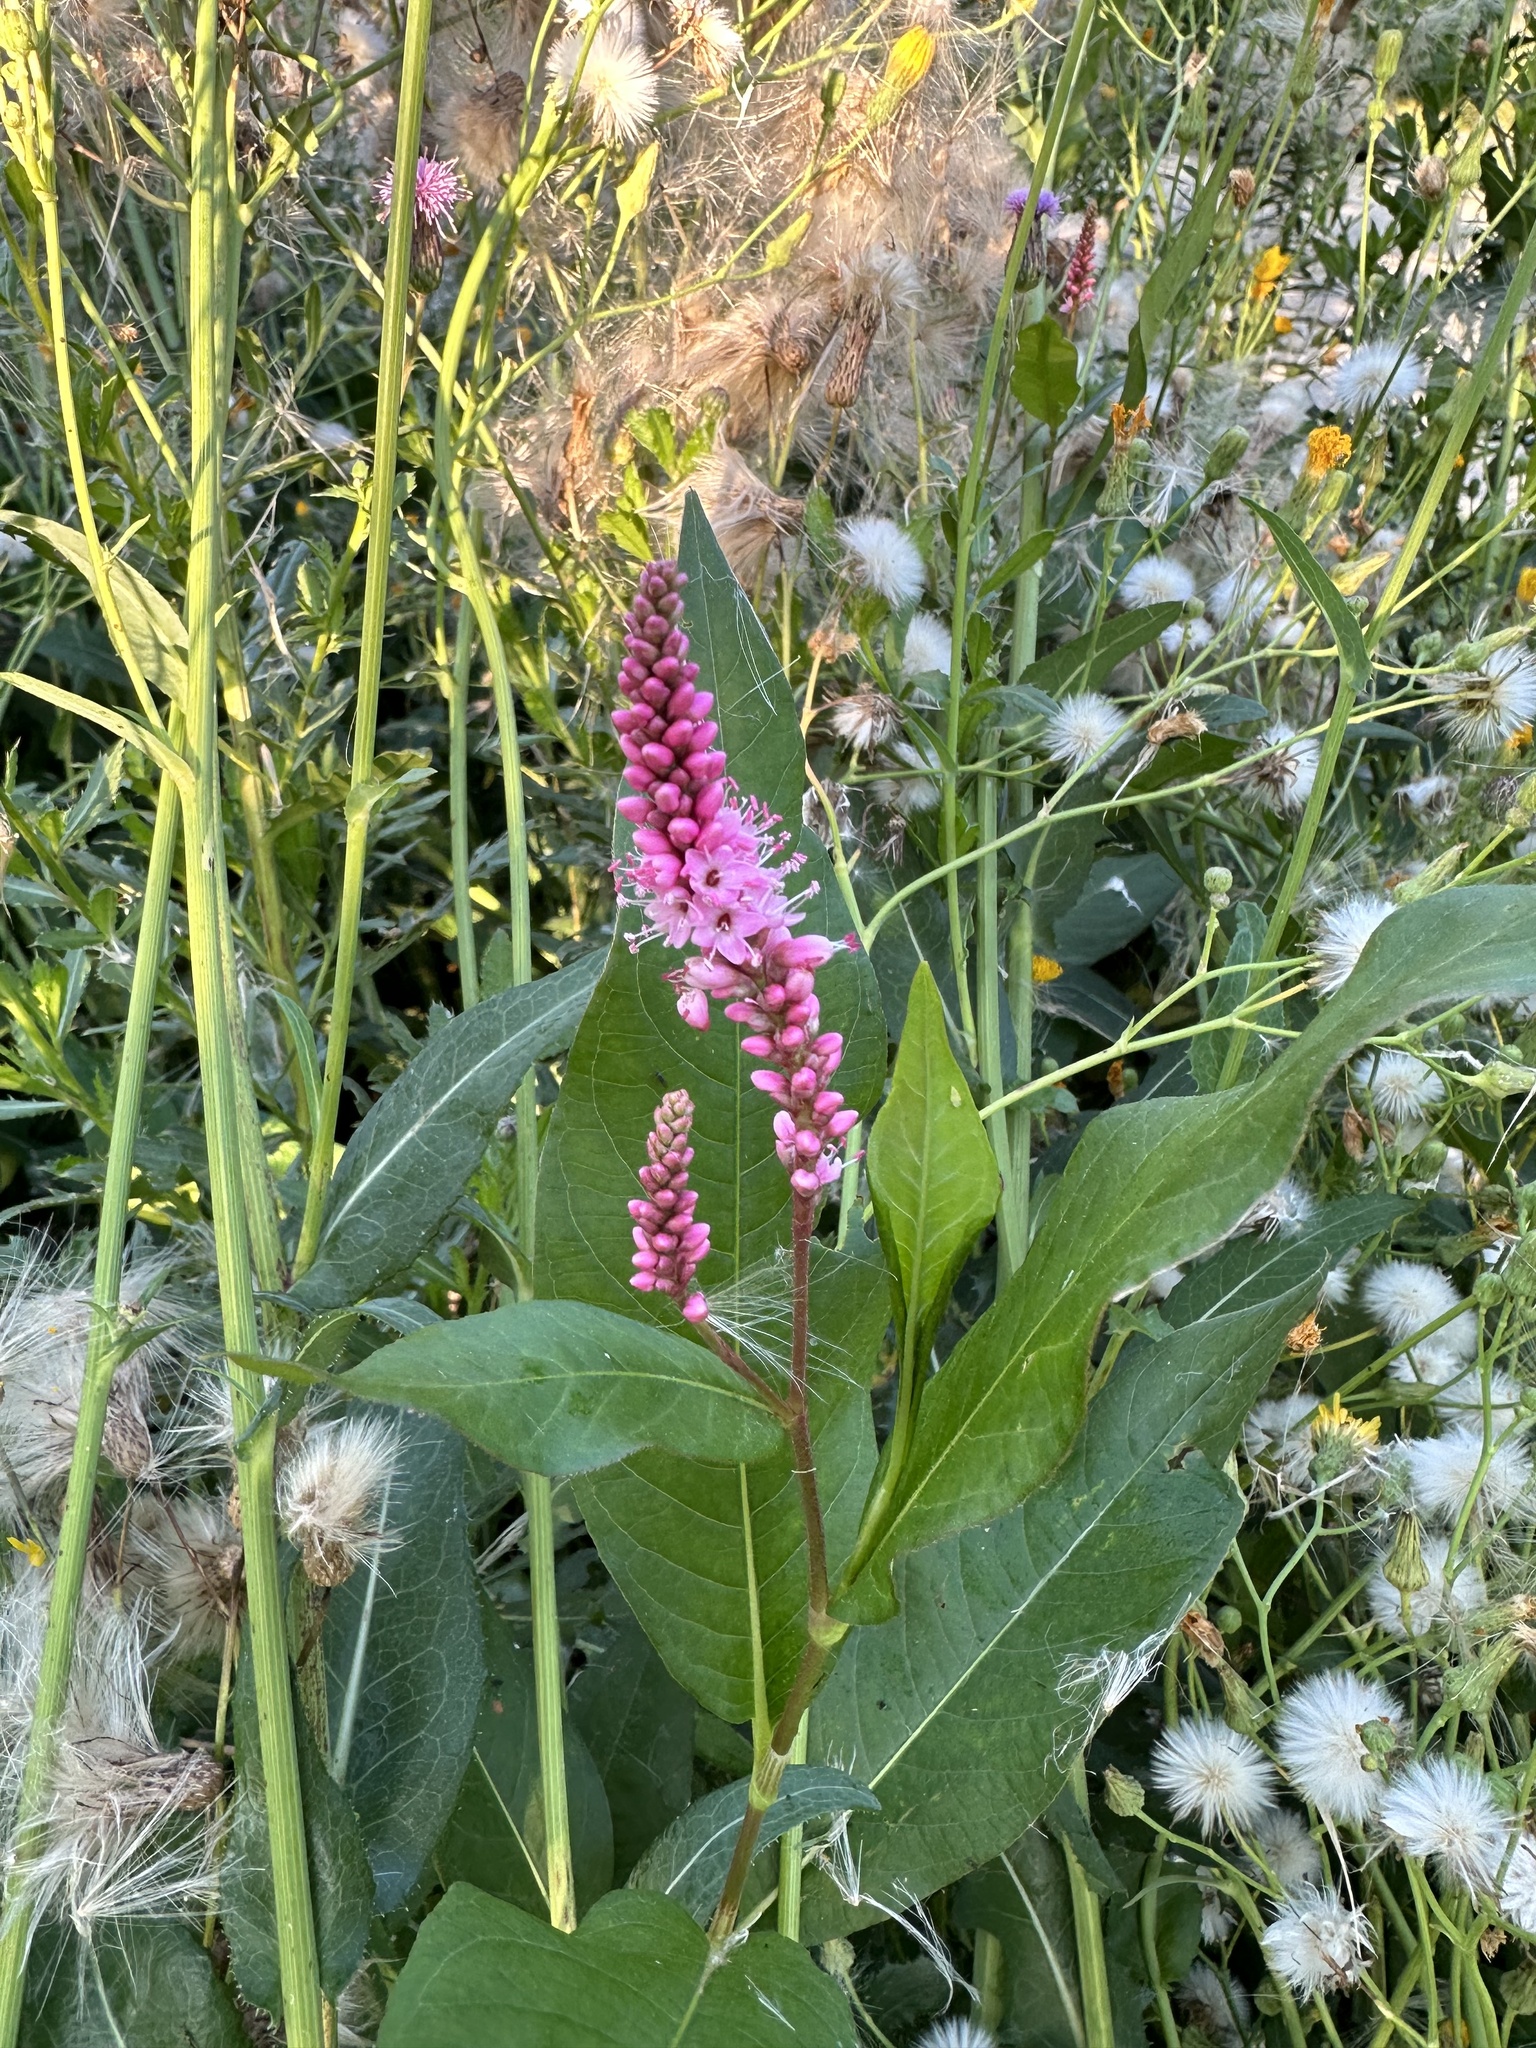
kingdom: Plantae
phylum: Tracheophyta
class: Magnoliopsida
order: Caryophyllales
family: Polygonaceae
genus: Persicaria
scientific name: Persicaria amphibia
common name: Amphibious bistort
